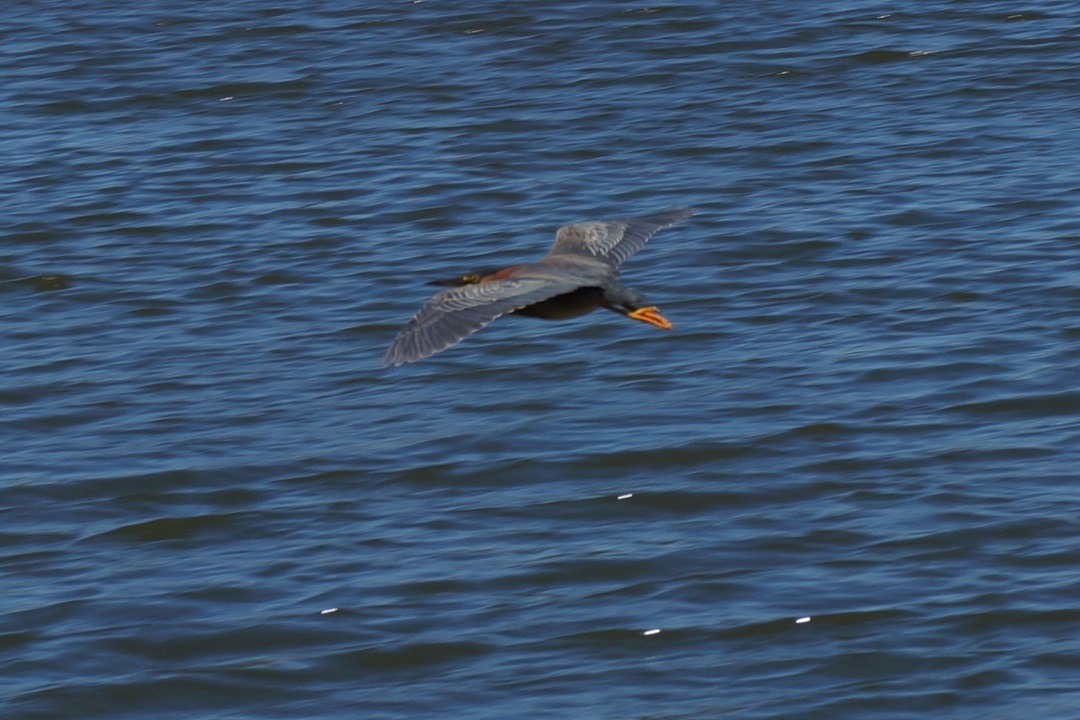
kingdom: Animalia
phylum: Chordata
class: Aves
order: Pelecaniformes
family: Ardeidae
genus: Butorides
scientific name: Butorides virescens
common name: Green heron
